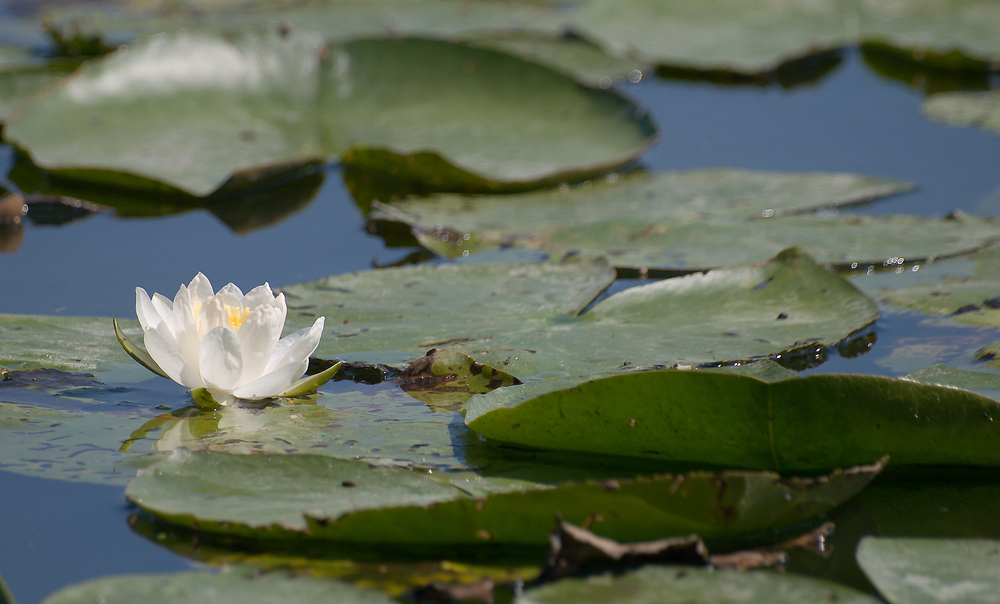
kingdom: Plantae
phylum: Tracheophyta
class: Magnoliopsida
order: Nymphaeales
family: Nymphaeaceae
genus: Nymphaea
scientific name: Nymphaea alba
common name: White water-lily
